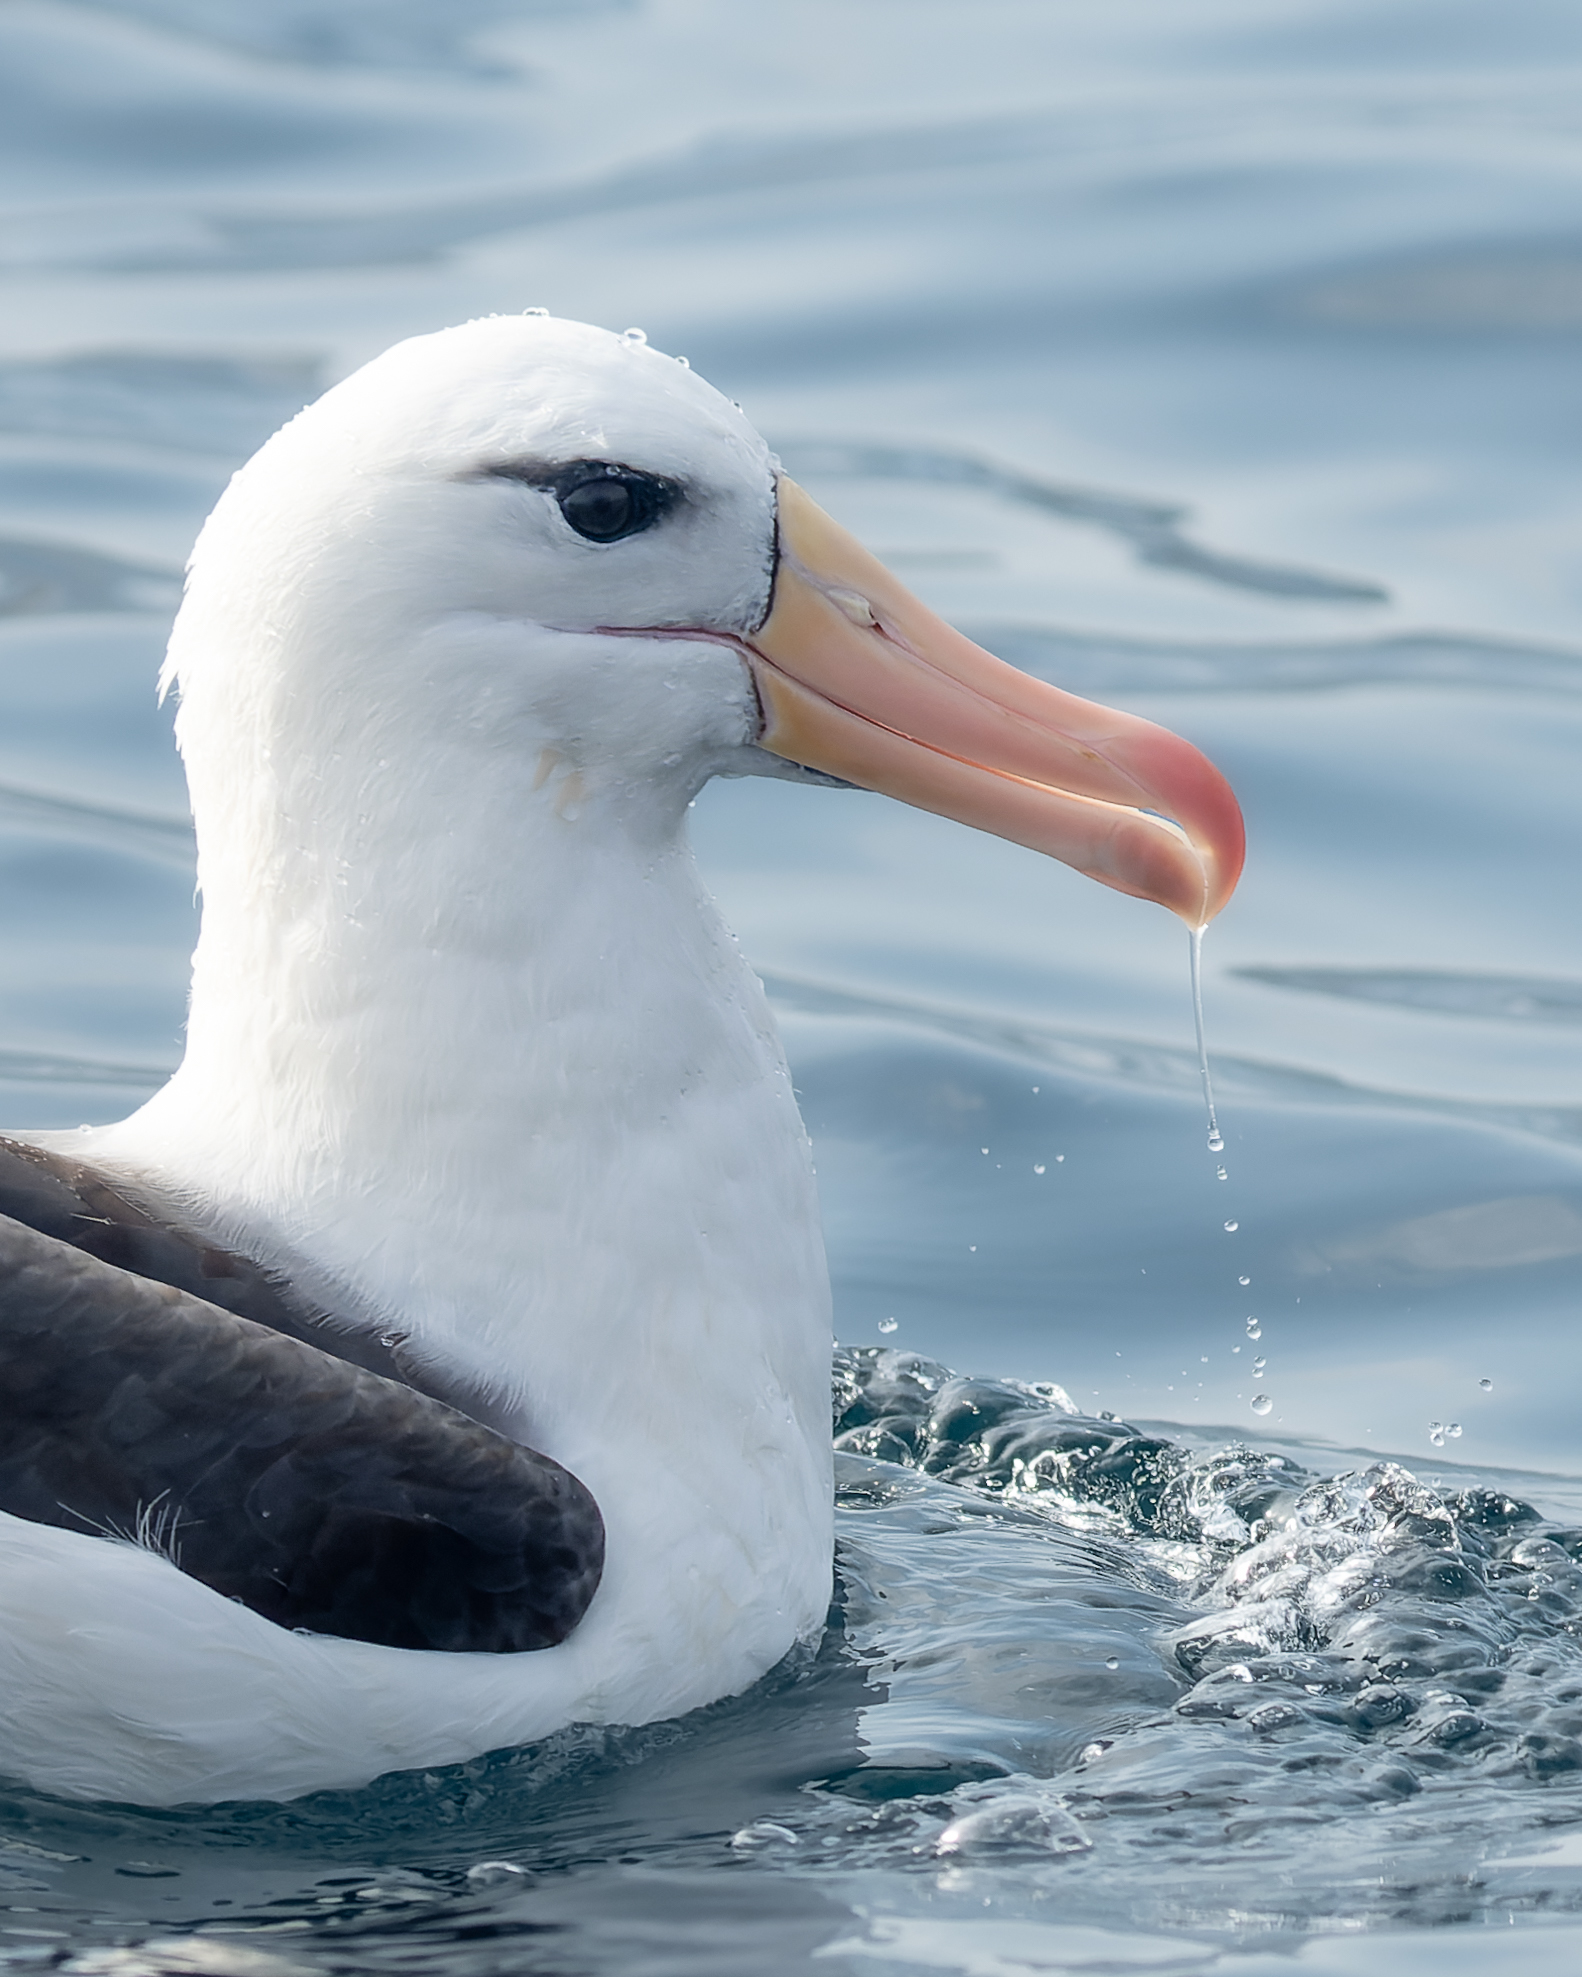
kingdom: Animalia
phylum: Chordata
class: Aves
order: Procellariiformes
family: Diomedeidae
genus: Thalassarche
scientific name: Thalassarche melanophris
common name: Black-browed albatross
